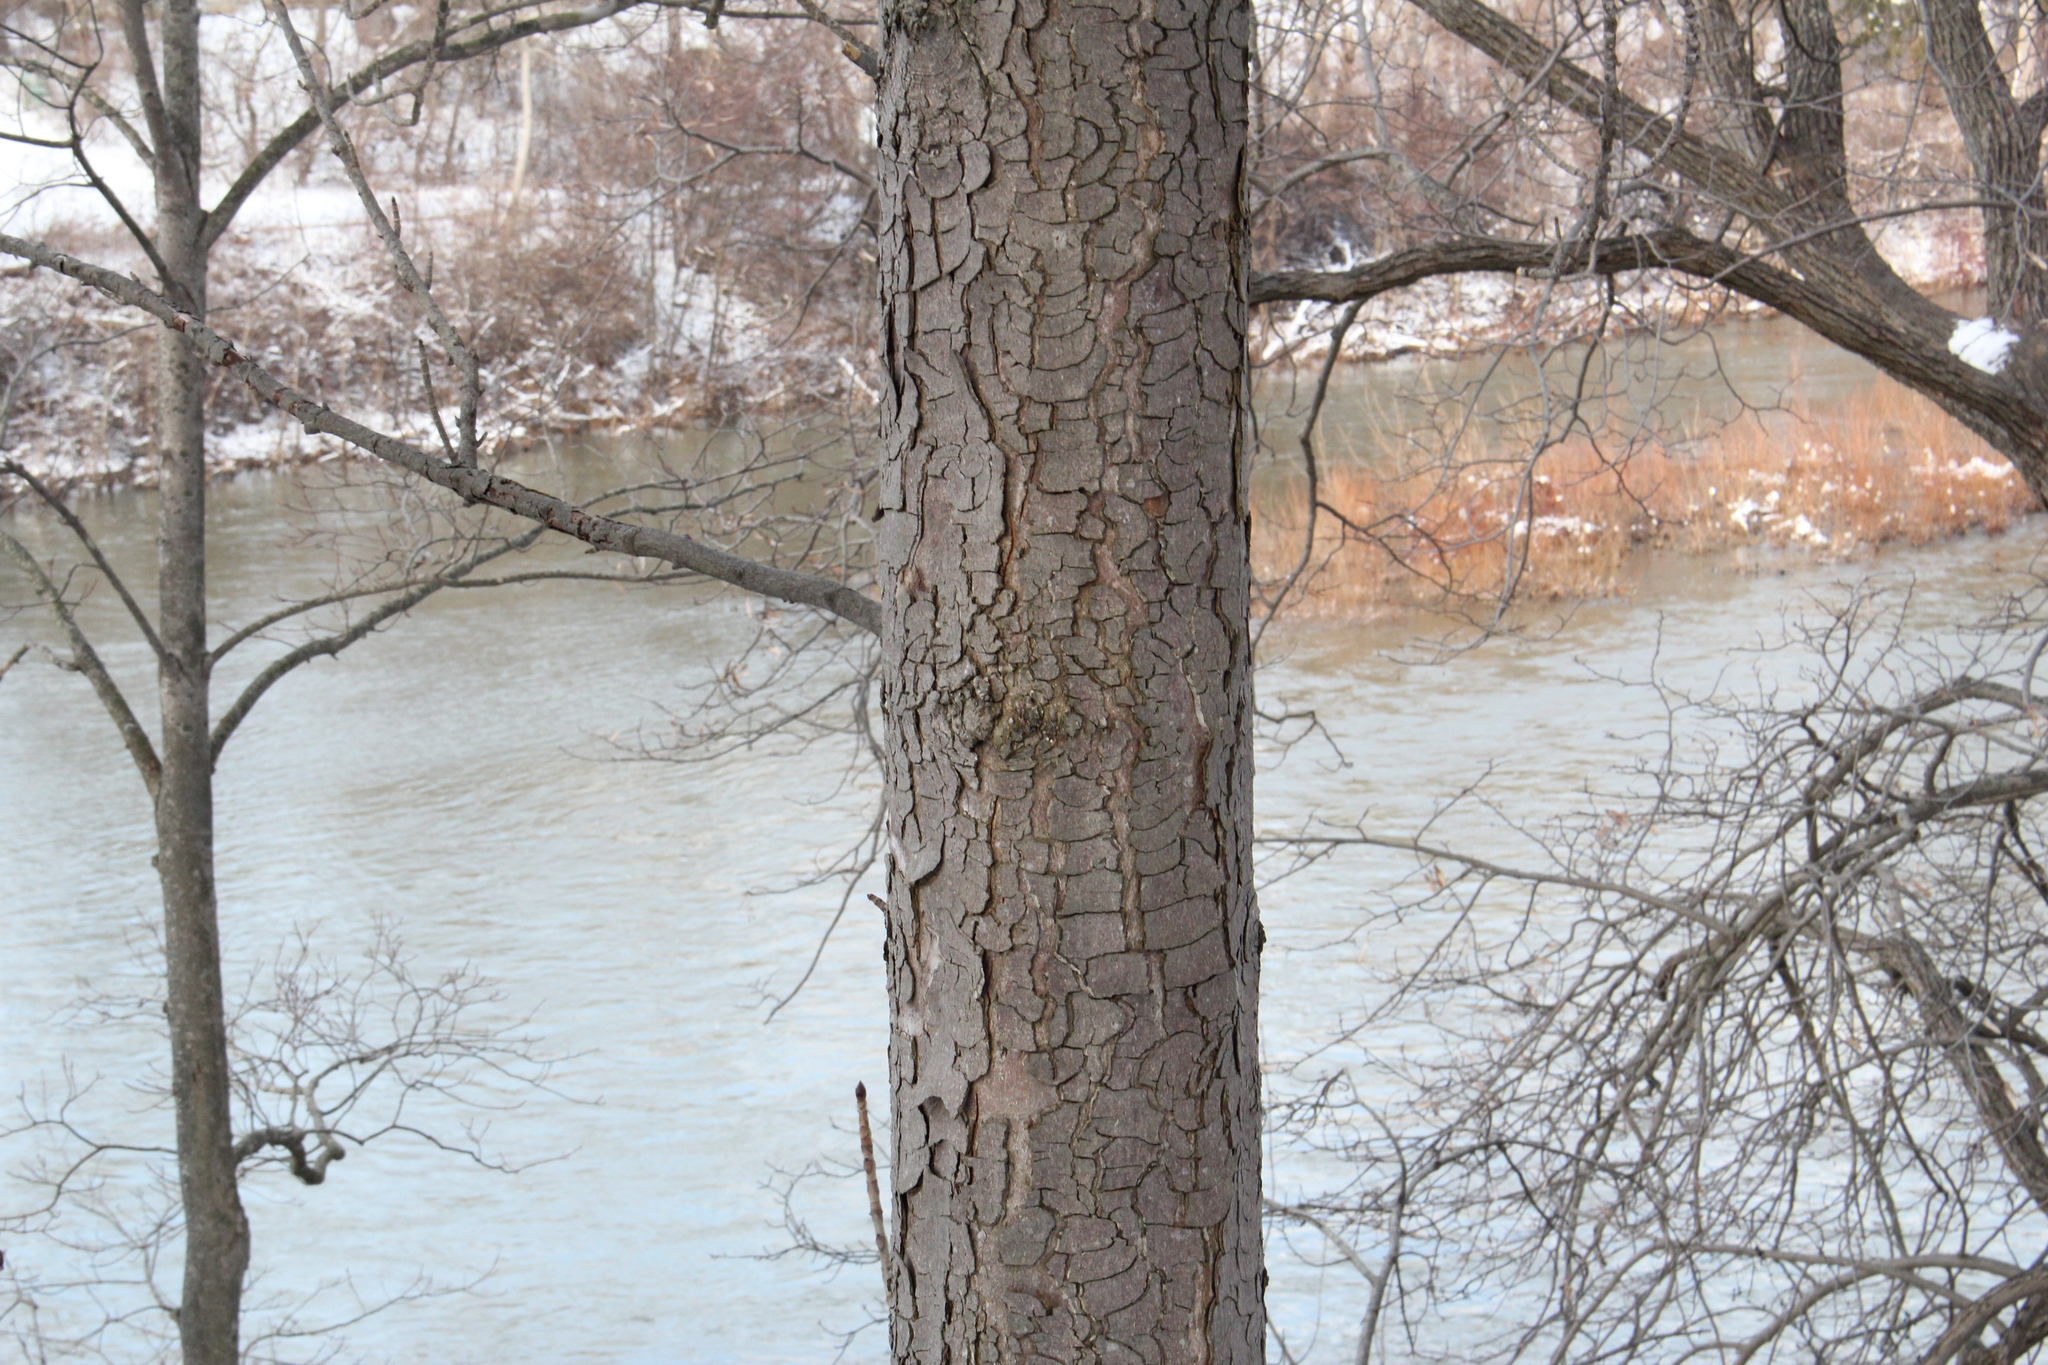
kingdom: Plantae
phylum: Tracheophyta
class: Magnoliopsida
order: Sapindales
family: Sapindaceae
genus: Aesculus
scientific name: Aesculus hippocastanum
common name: Horse-chestnut
